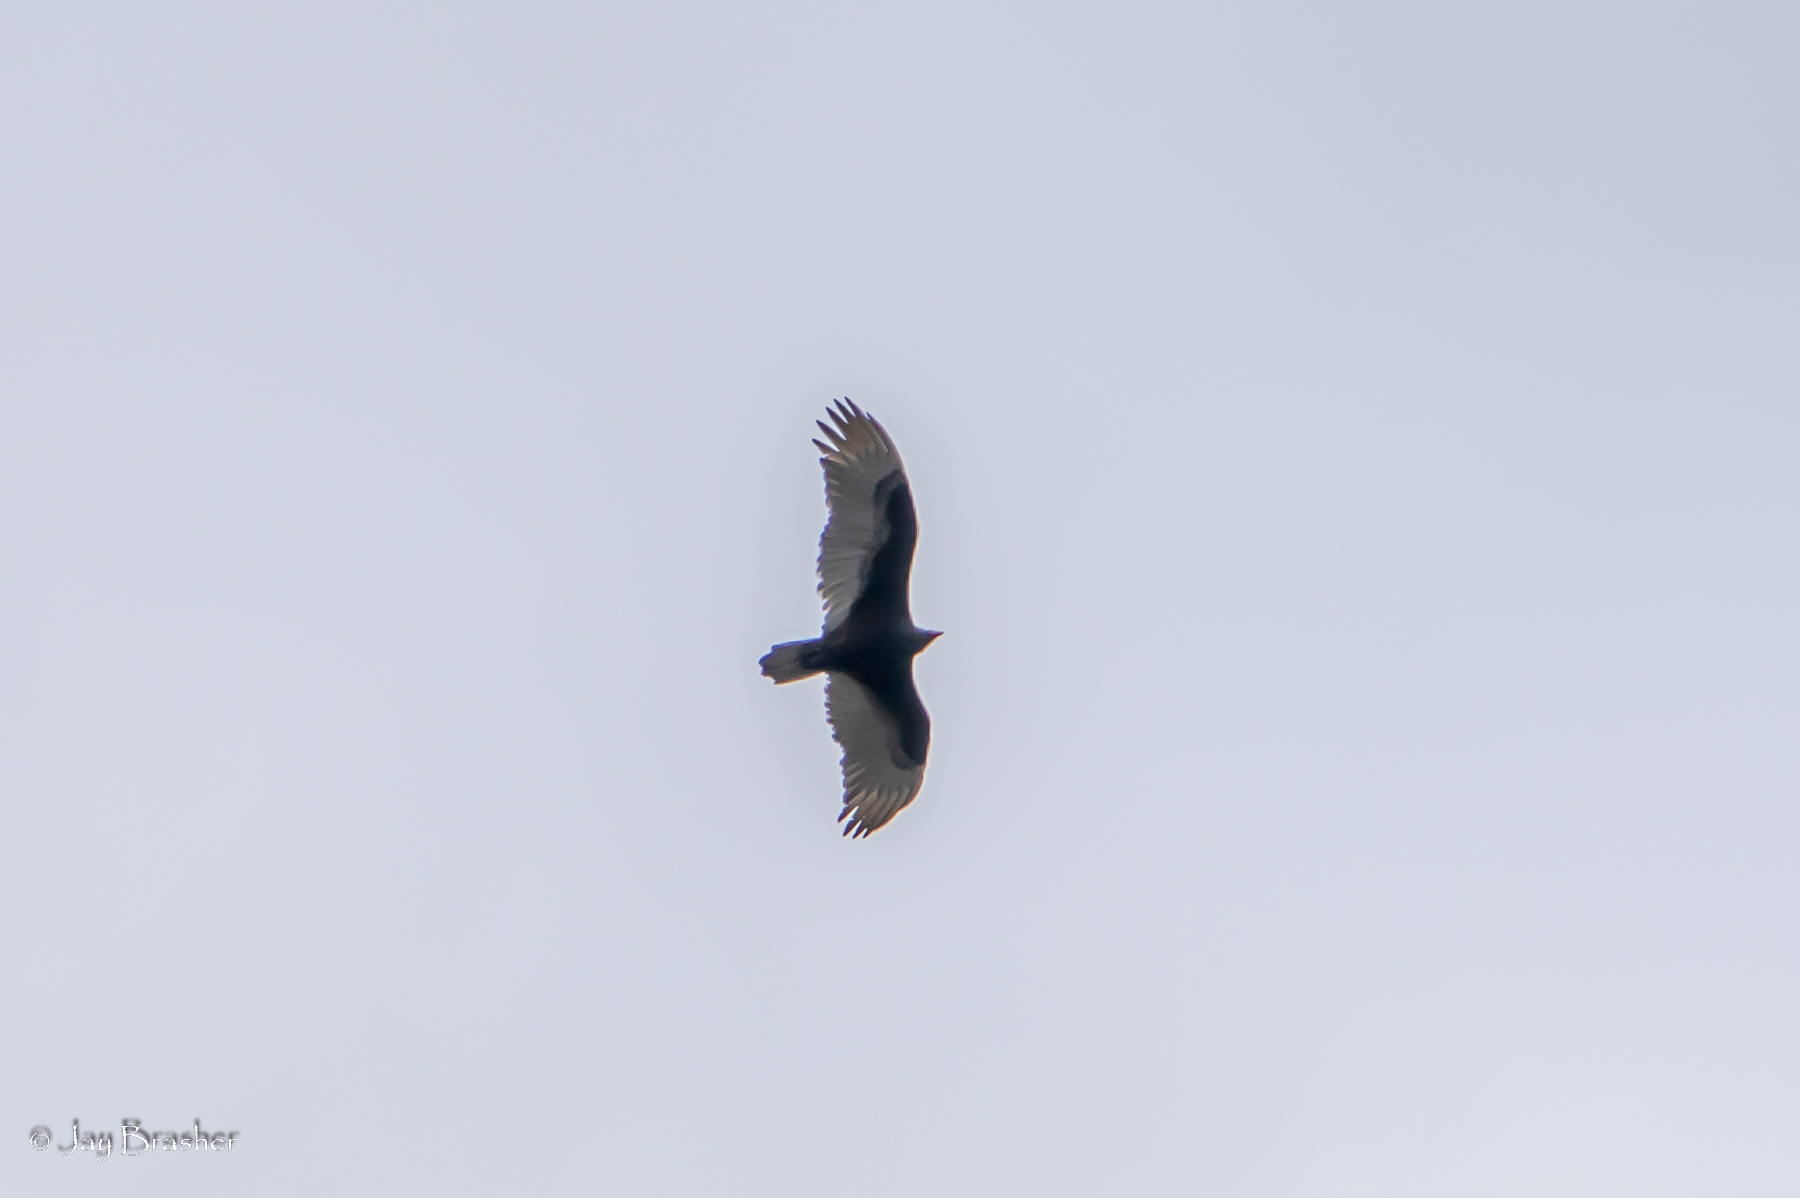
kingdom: Animalia
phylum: Chordata
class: Aves
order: Accipitriformes
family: Cathartidae
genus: Cathartes
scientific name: Cathartes aura
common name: Turkey vulture
